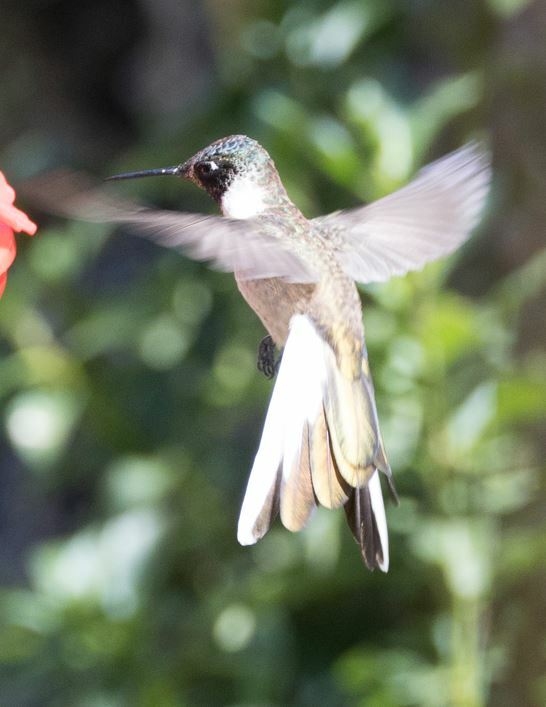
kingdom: Animalia
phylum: Chordata
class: Aves
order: Apodiformes
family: Trochilidae
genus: Oreonympha
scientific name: Oreonympha nobilis
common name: Bearded mountaineer
